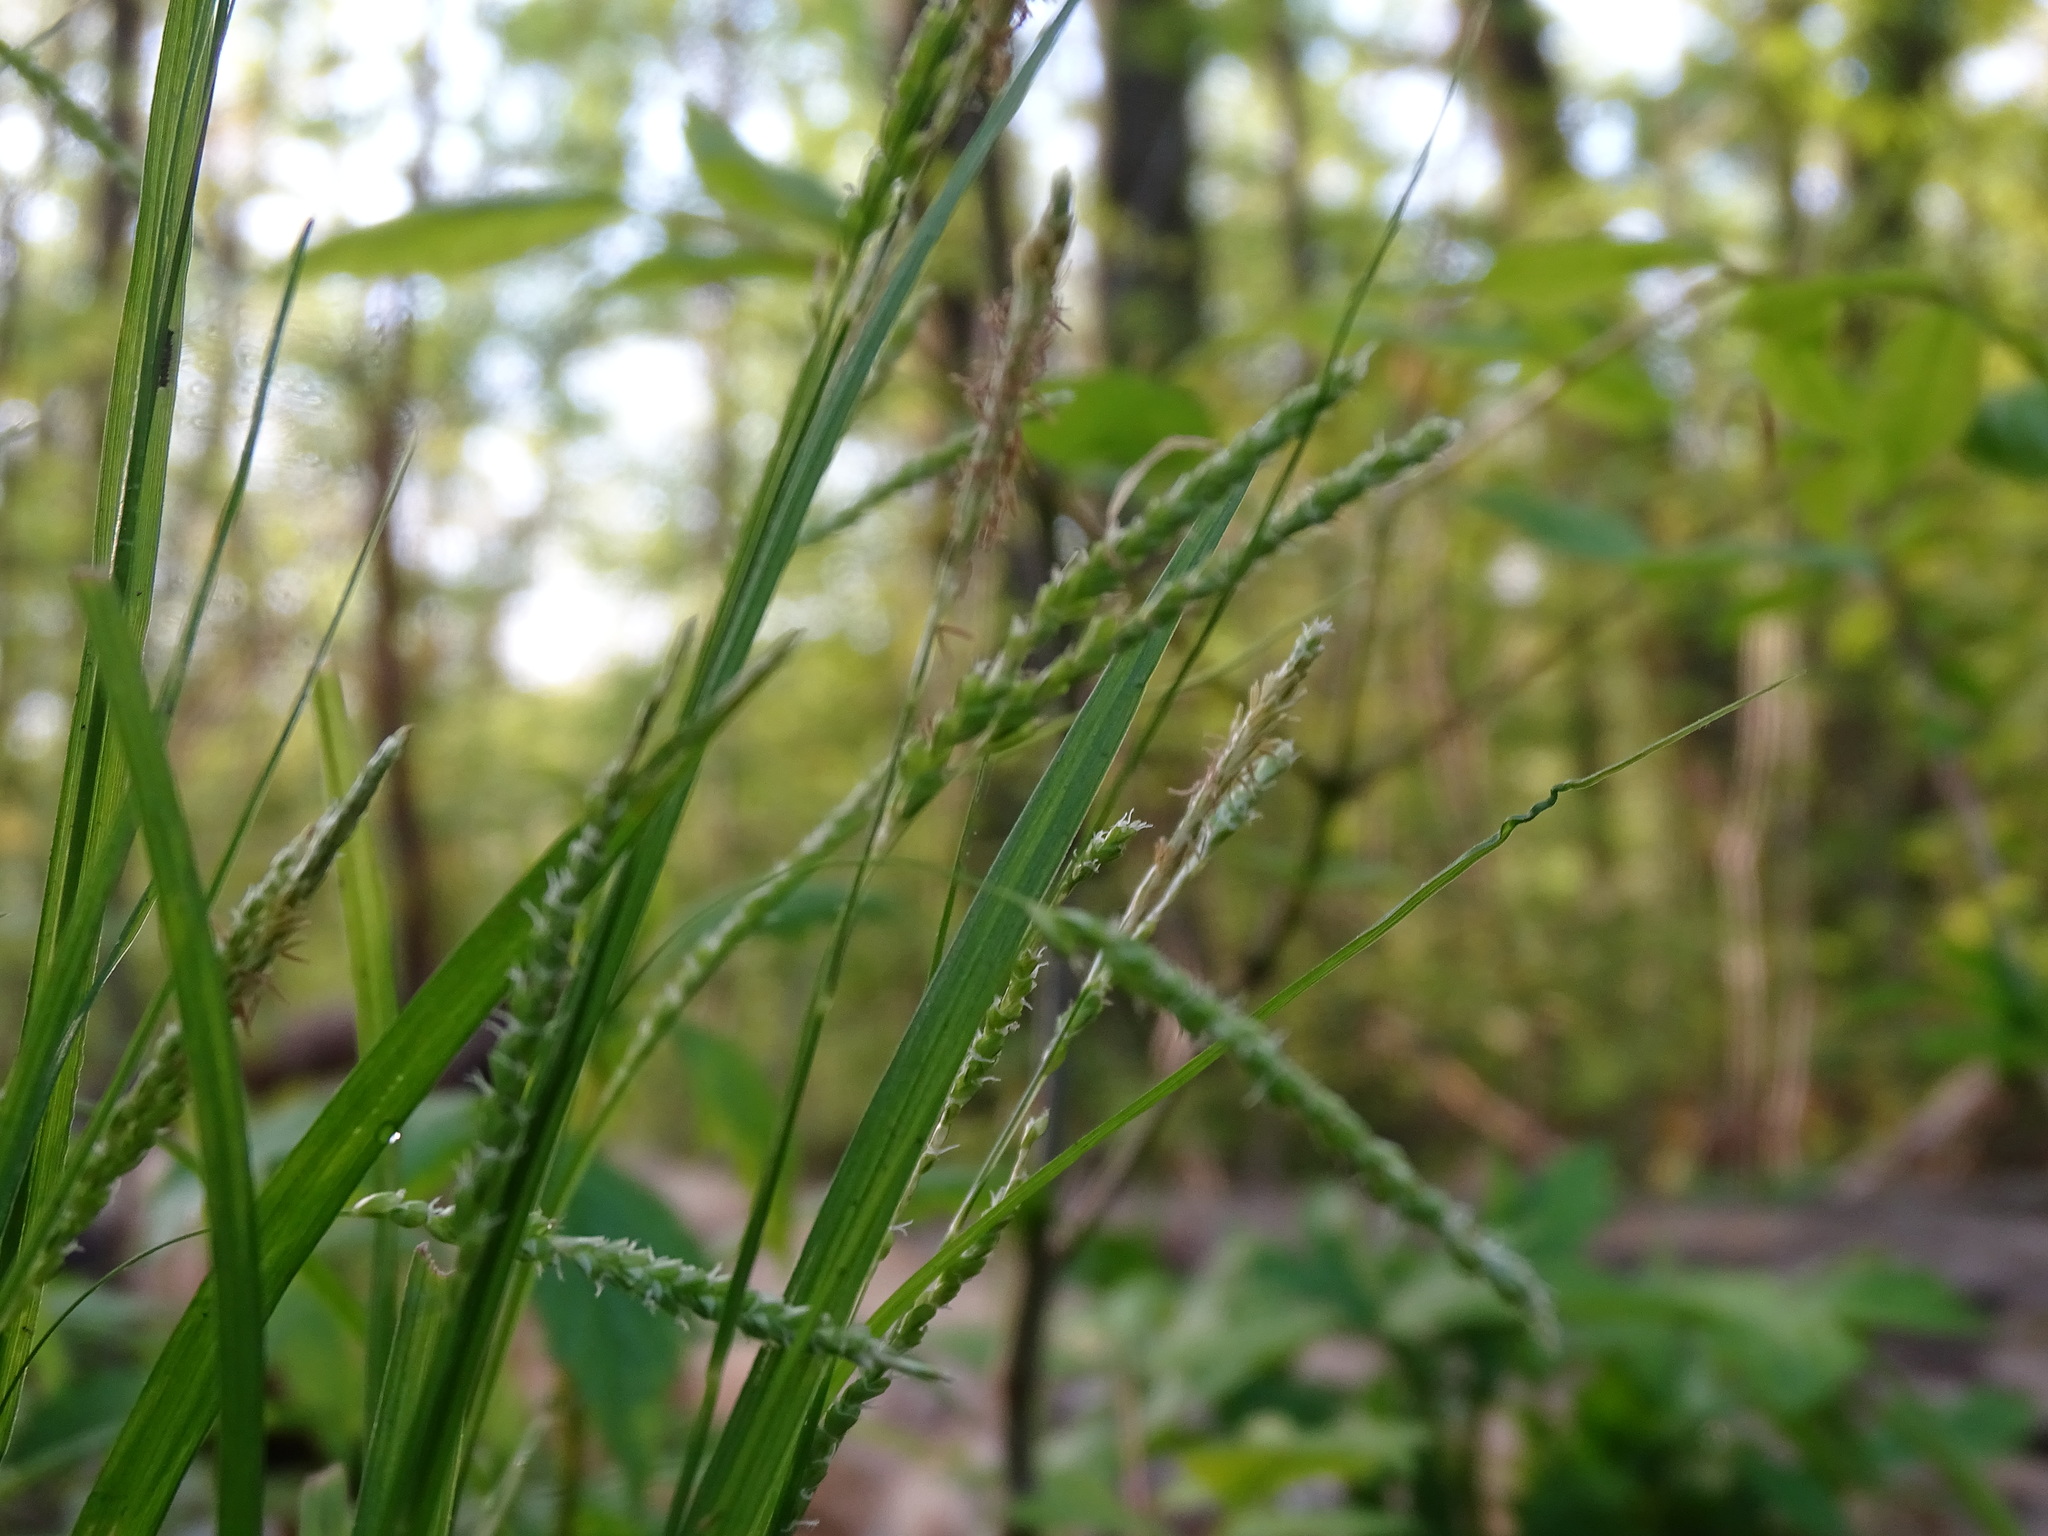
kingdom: Plantae
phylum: Tracheophyta
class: Liliopsida
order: Poales
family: Cyperaceae
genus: Carex
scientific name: Carex gracillima
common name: Graceful sedge
